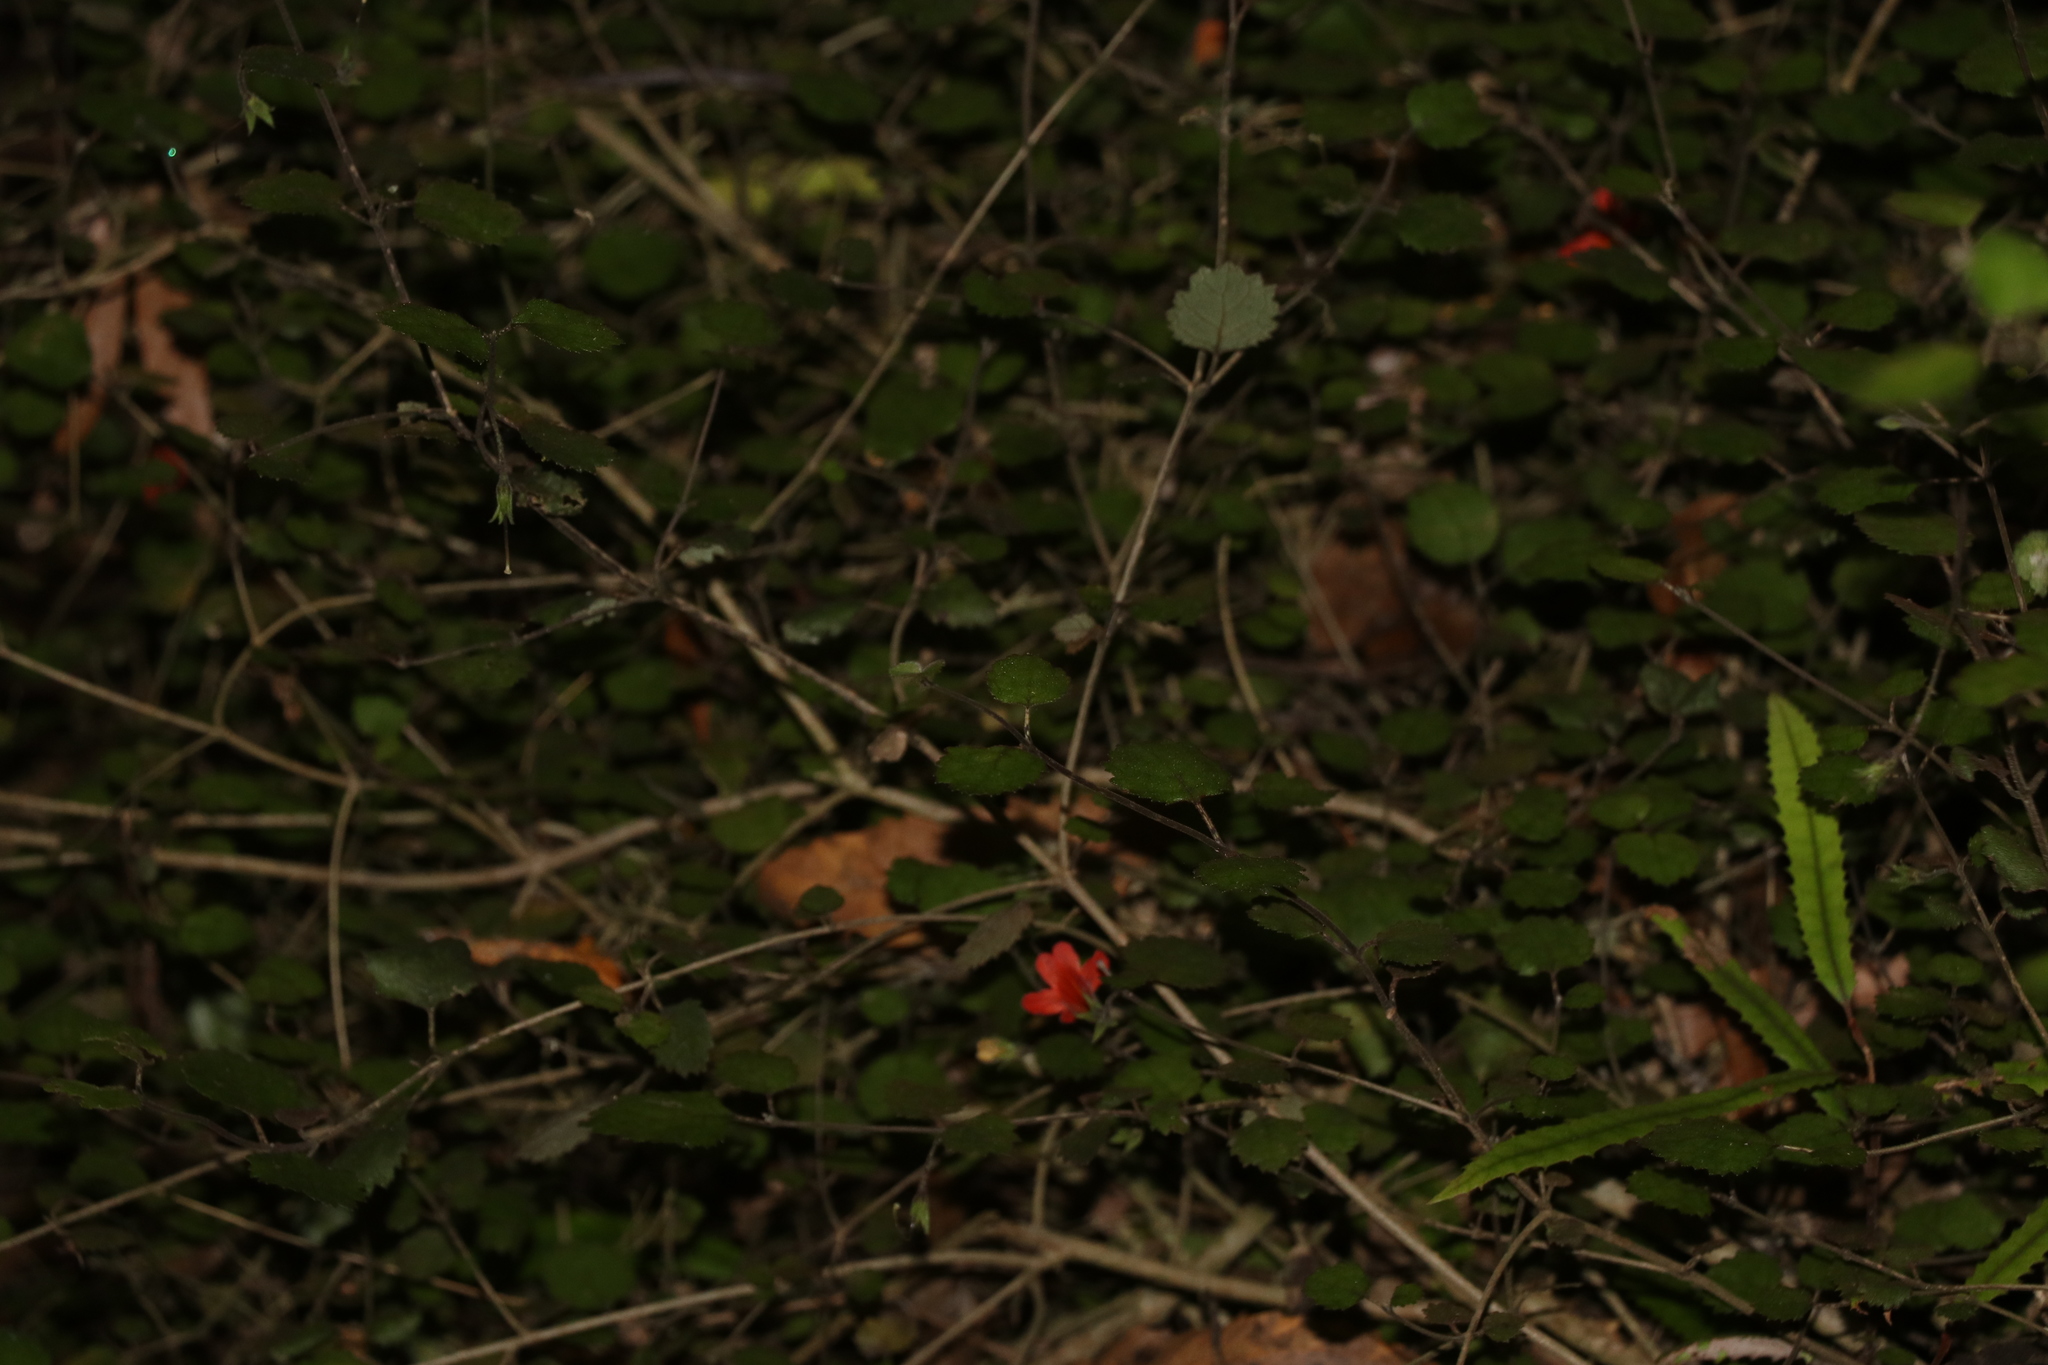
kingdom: Plantae
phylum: Tracheophyta
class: Magnoliopsida
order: Lamiales
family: Gesneriaceae
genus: Rhabdothamnus
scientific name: Rhabdothamnus solandri
